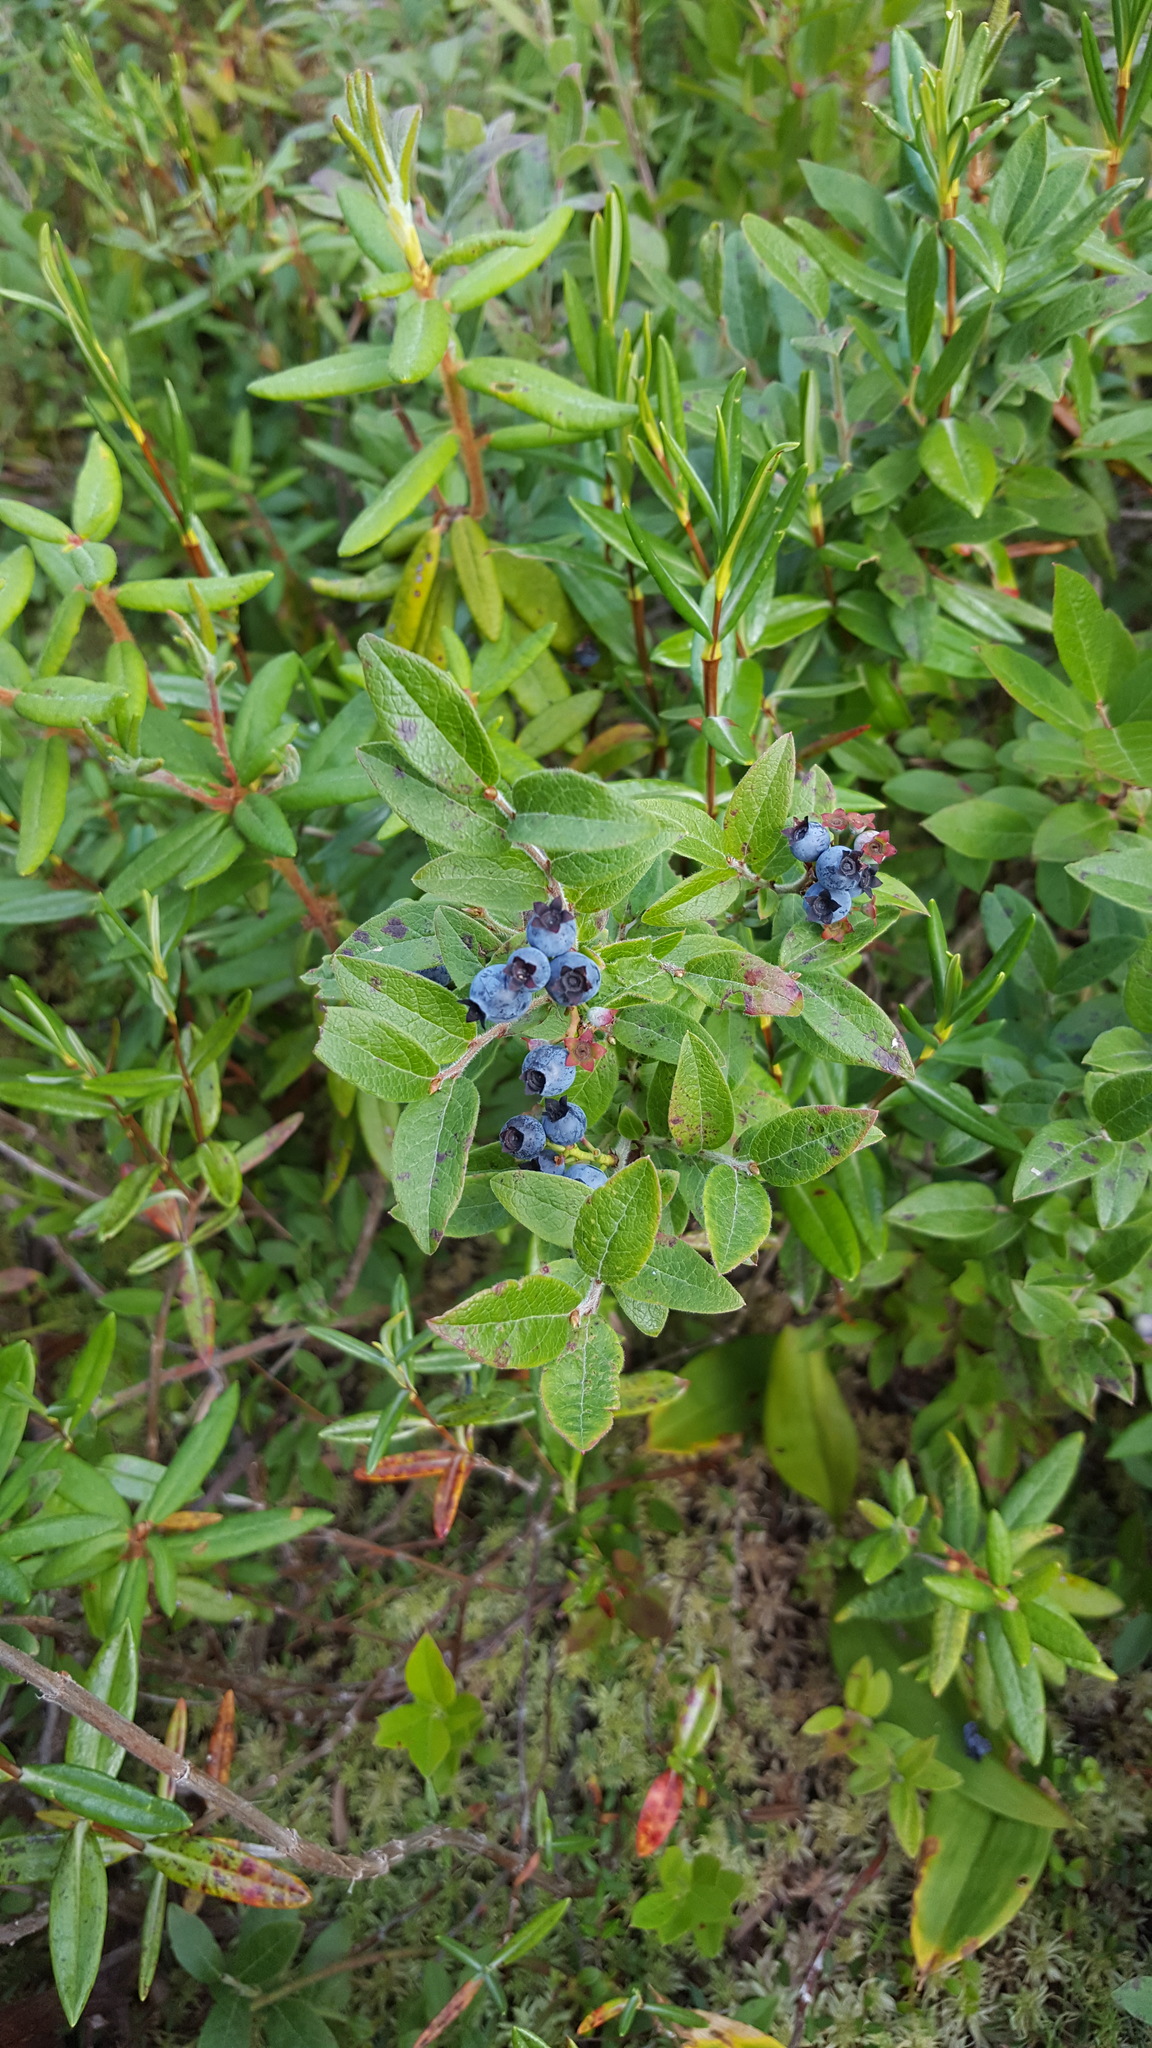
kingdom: Plantae
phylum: Tracheophyta
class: Magnoliopsida
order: Ericales
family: Ericaceae
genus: Vaccinium
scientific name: Vaccinium myrtilloides
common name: Canada blueberry
